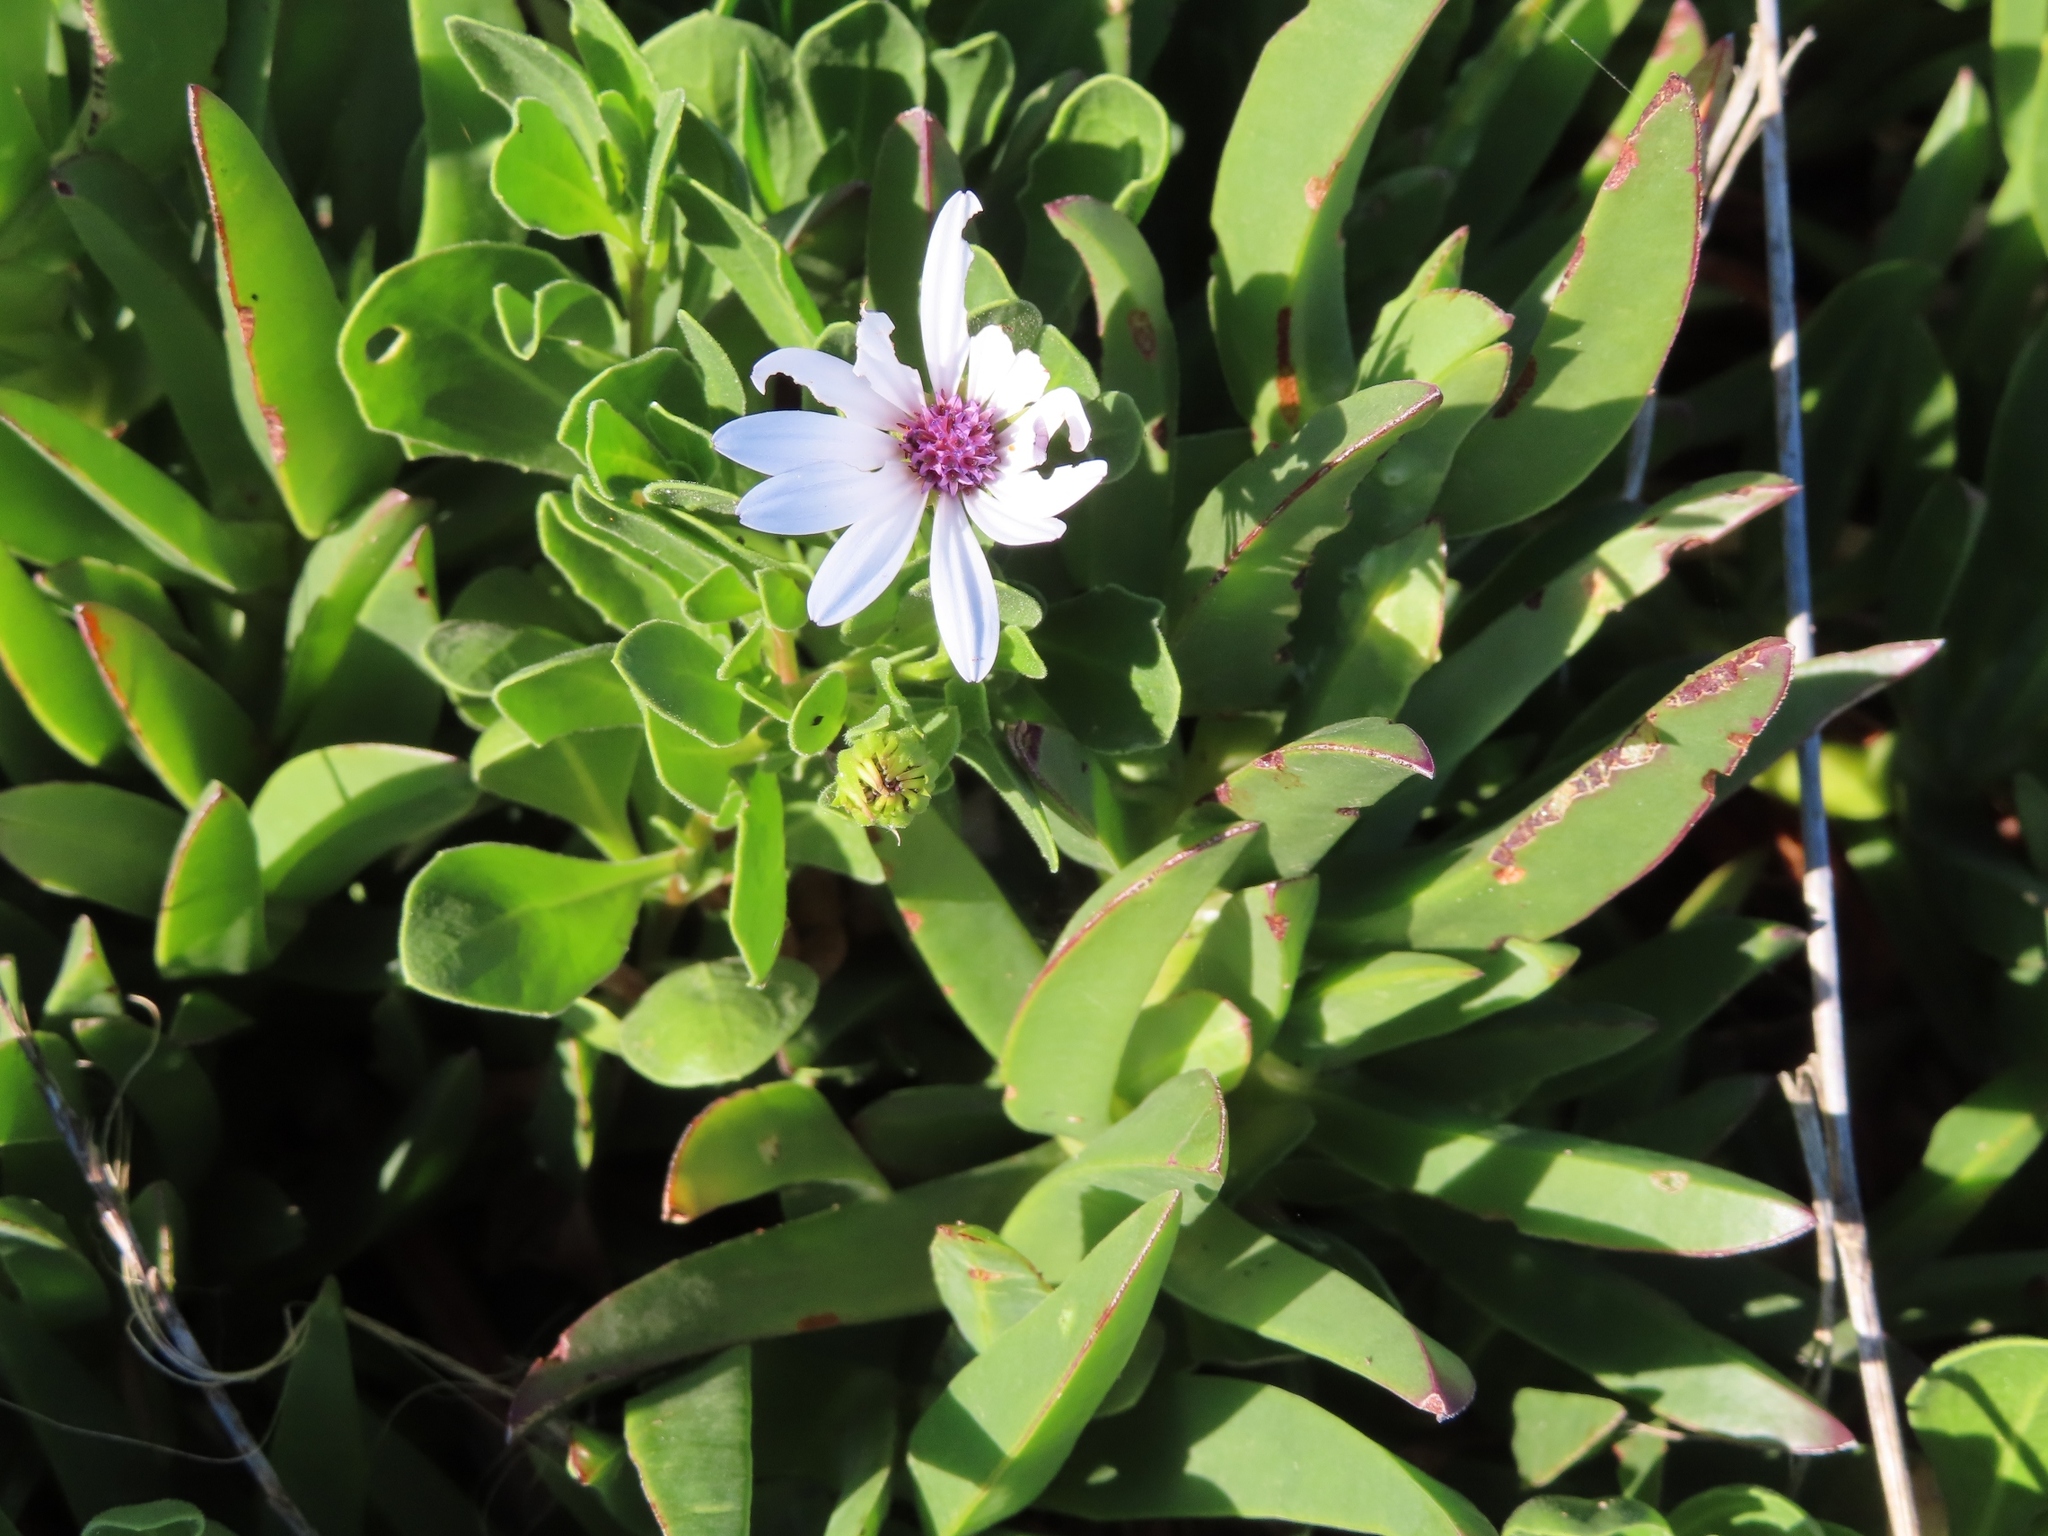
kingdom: Plantae
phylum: Tracheophyta
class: Magnoliopsida
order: Asterales
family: Asteraceae
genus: Dimorphotheca
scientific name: Dimorphotheca fruticosa
